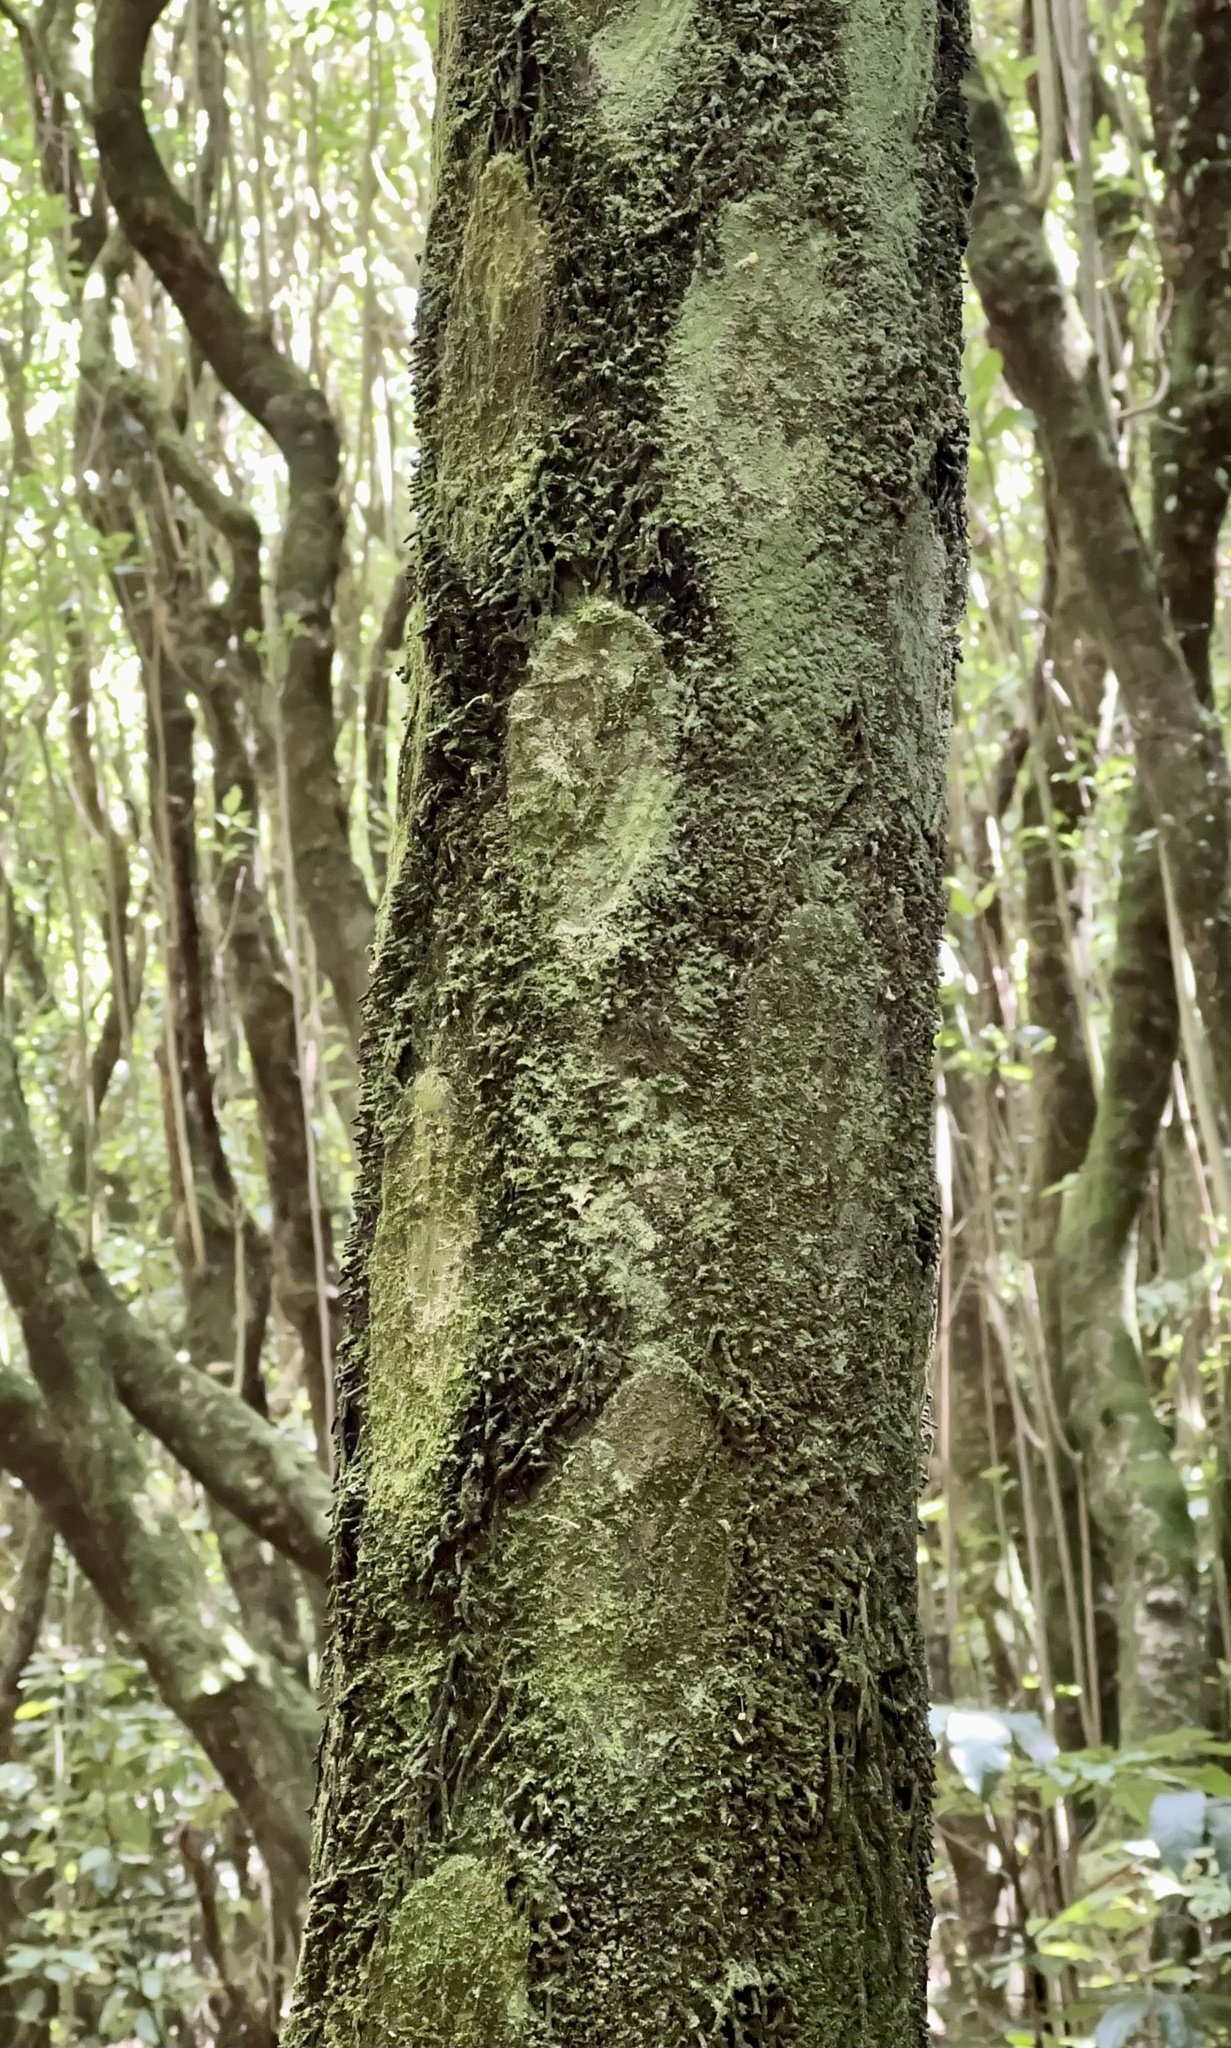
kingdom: Plantae
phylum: Tracheophyta
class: Polypodiopsida
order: Cyatheales
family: Cyatheaceae
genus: Sphaeropteris
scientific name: Sphaeropteris medullaris
